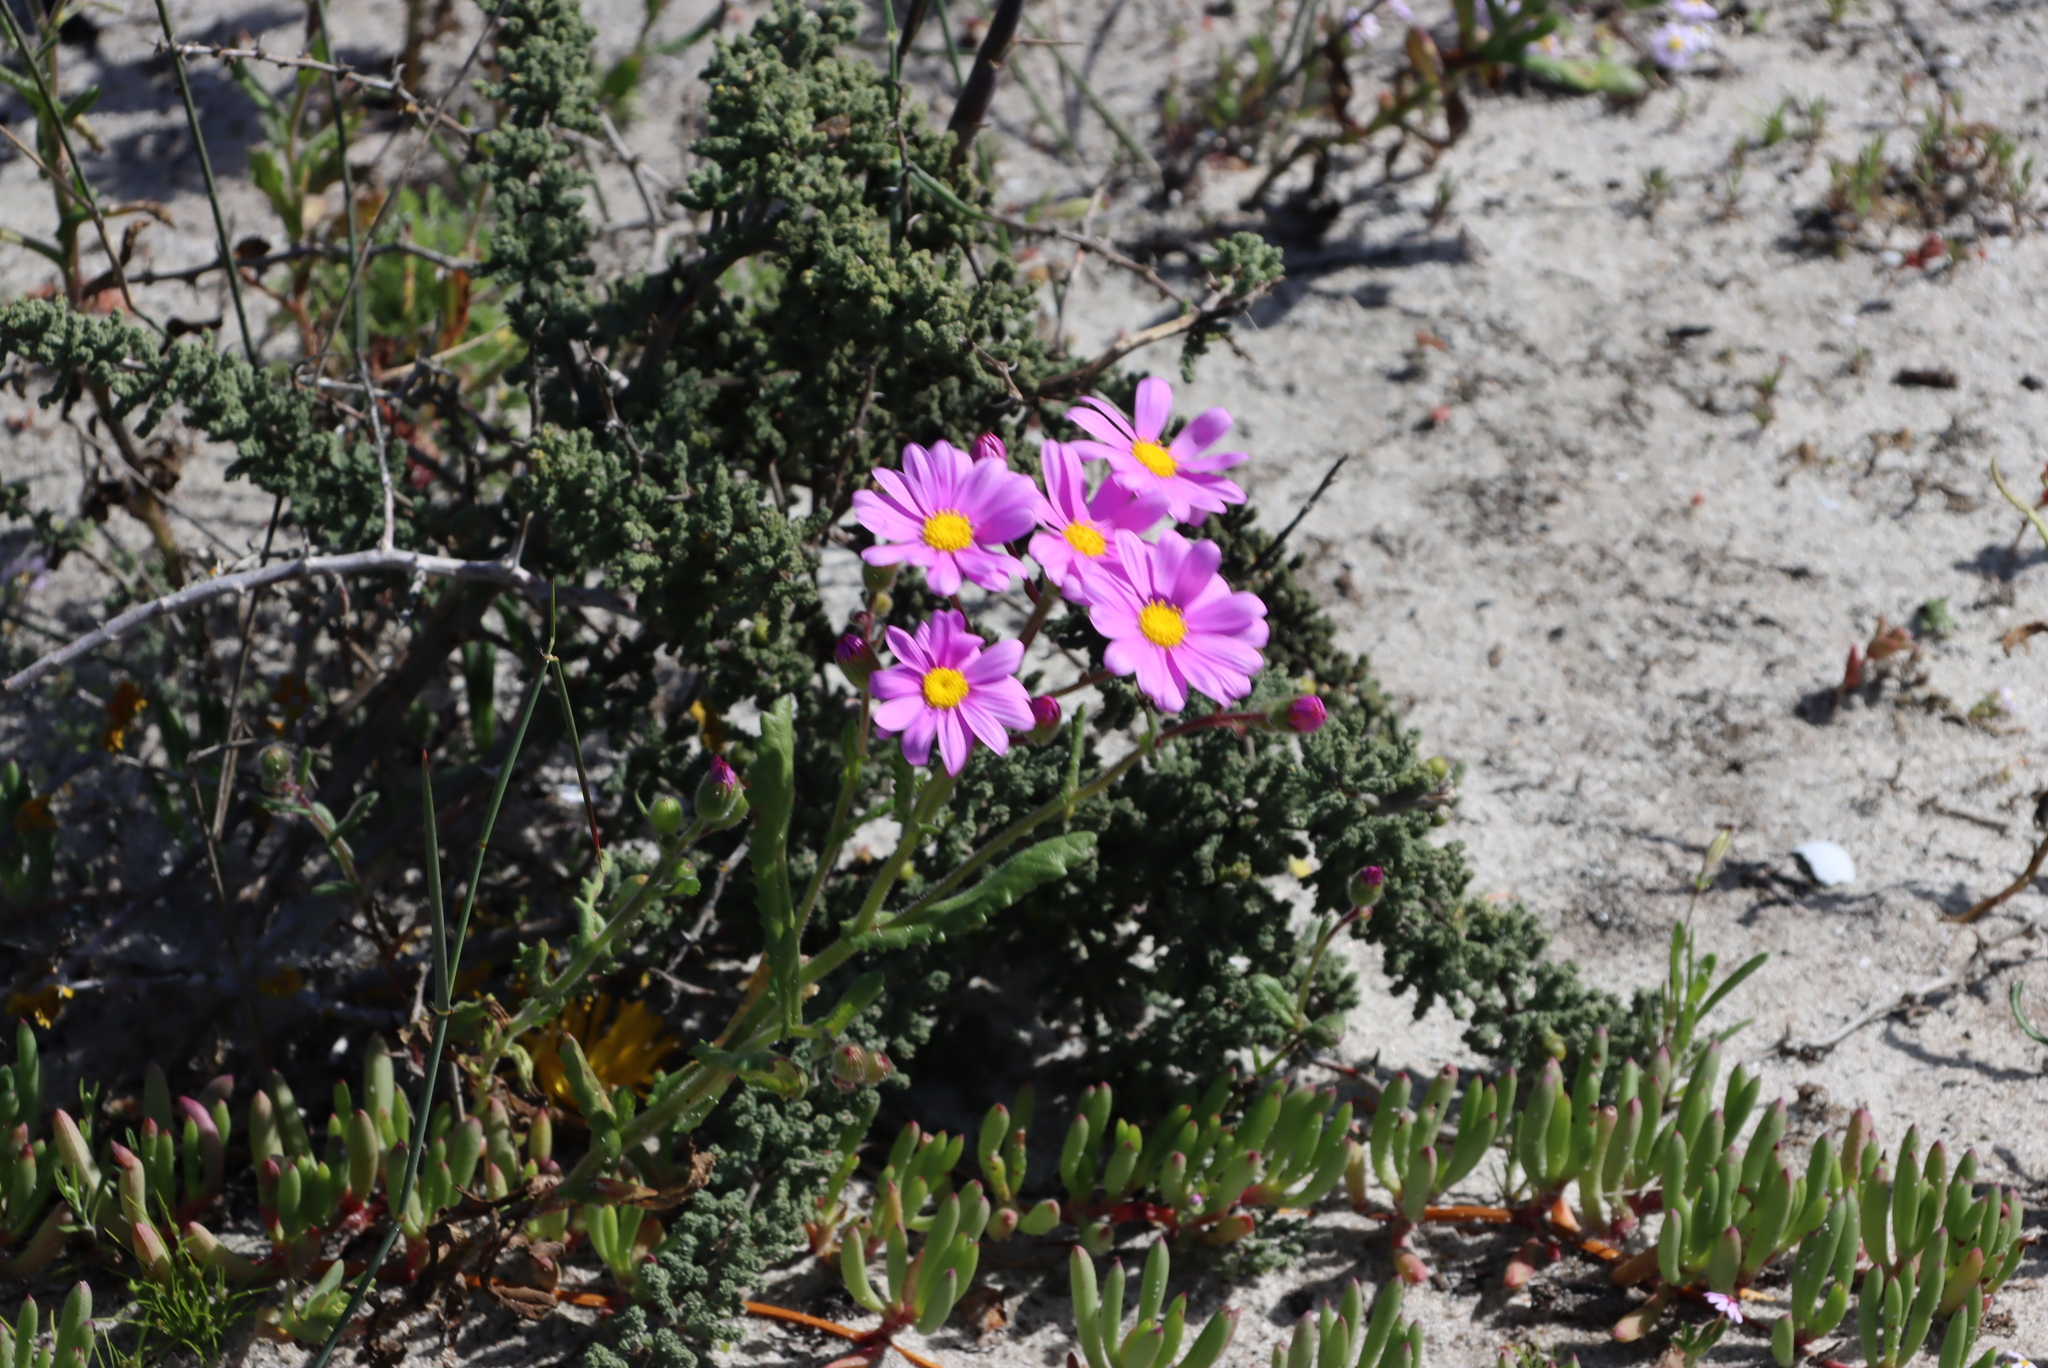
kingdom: Plantae
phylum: Tracheophyta
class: Liliopsida
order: Asparagales
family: Asparagaceae
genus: Asparagus
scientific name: Asparagus capensis
